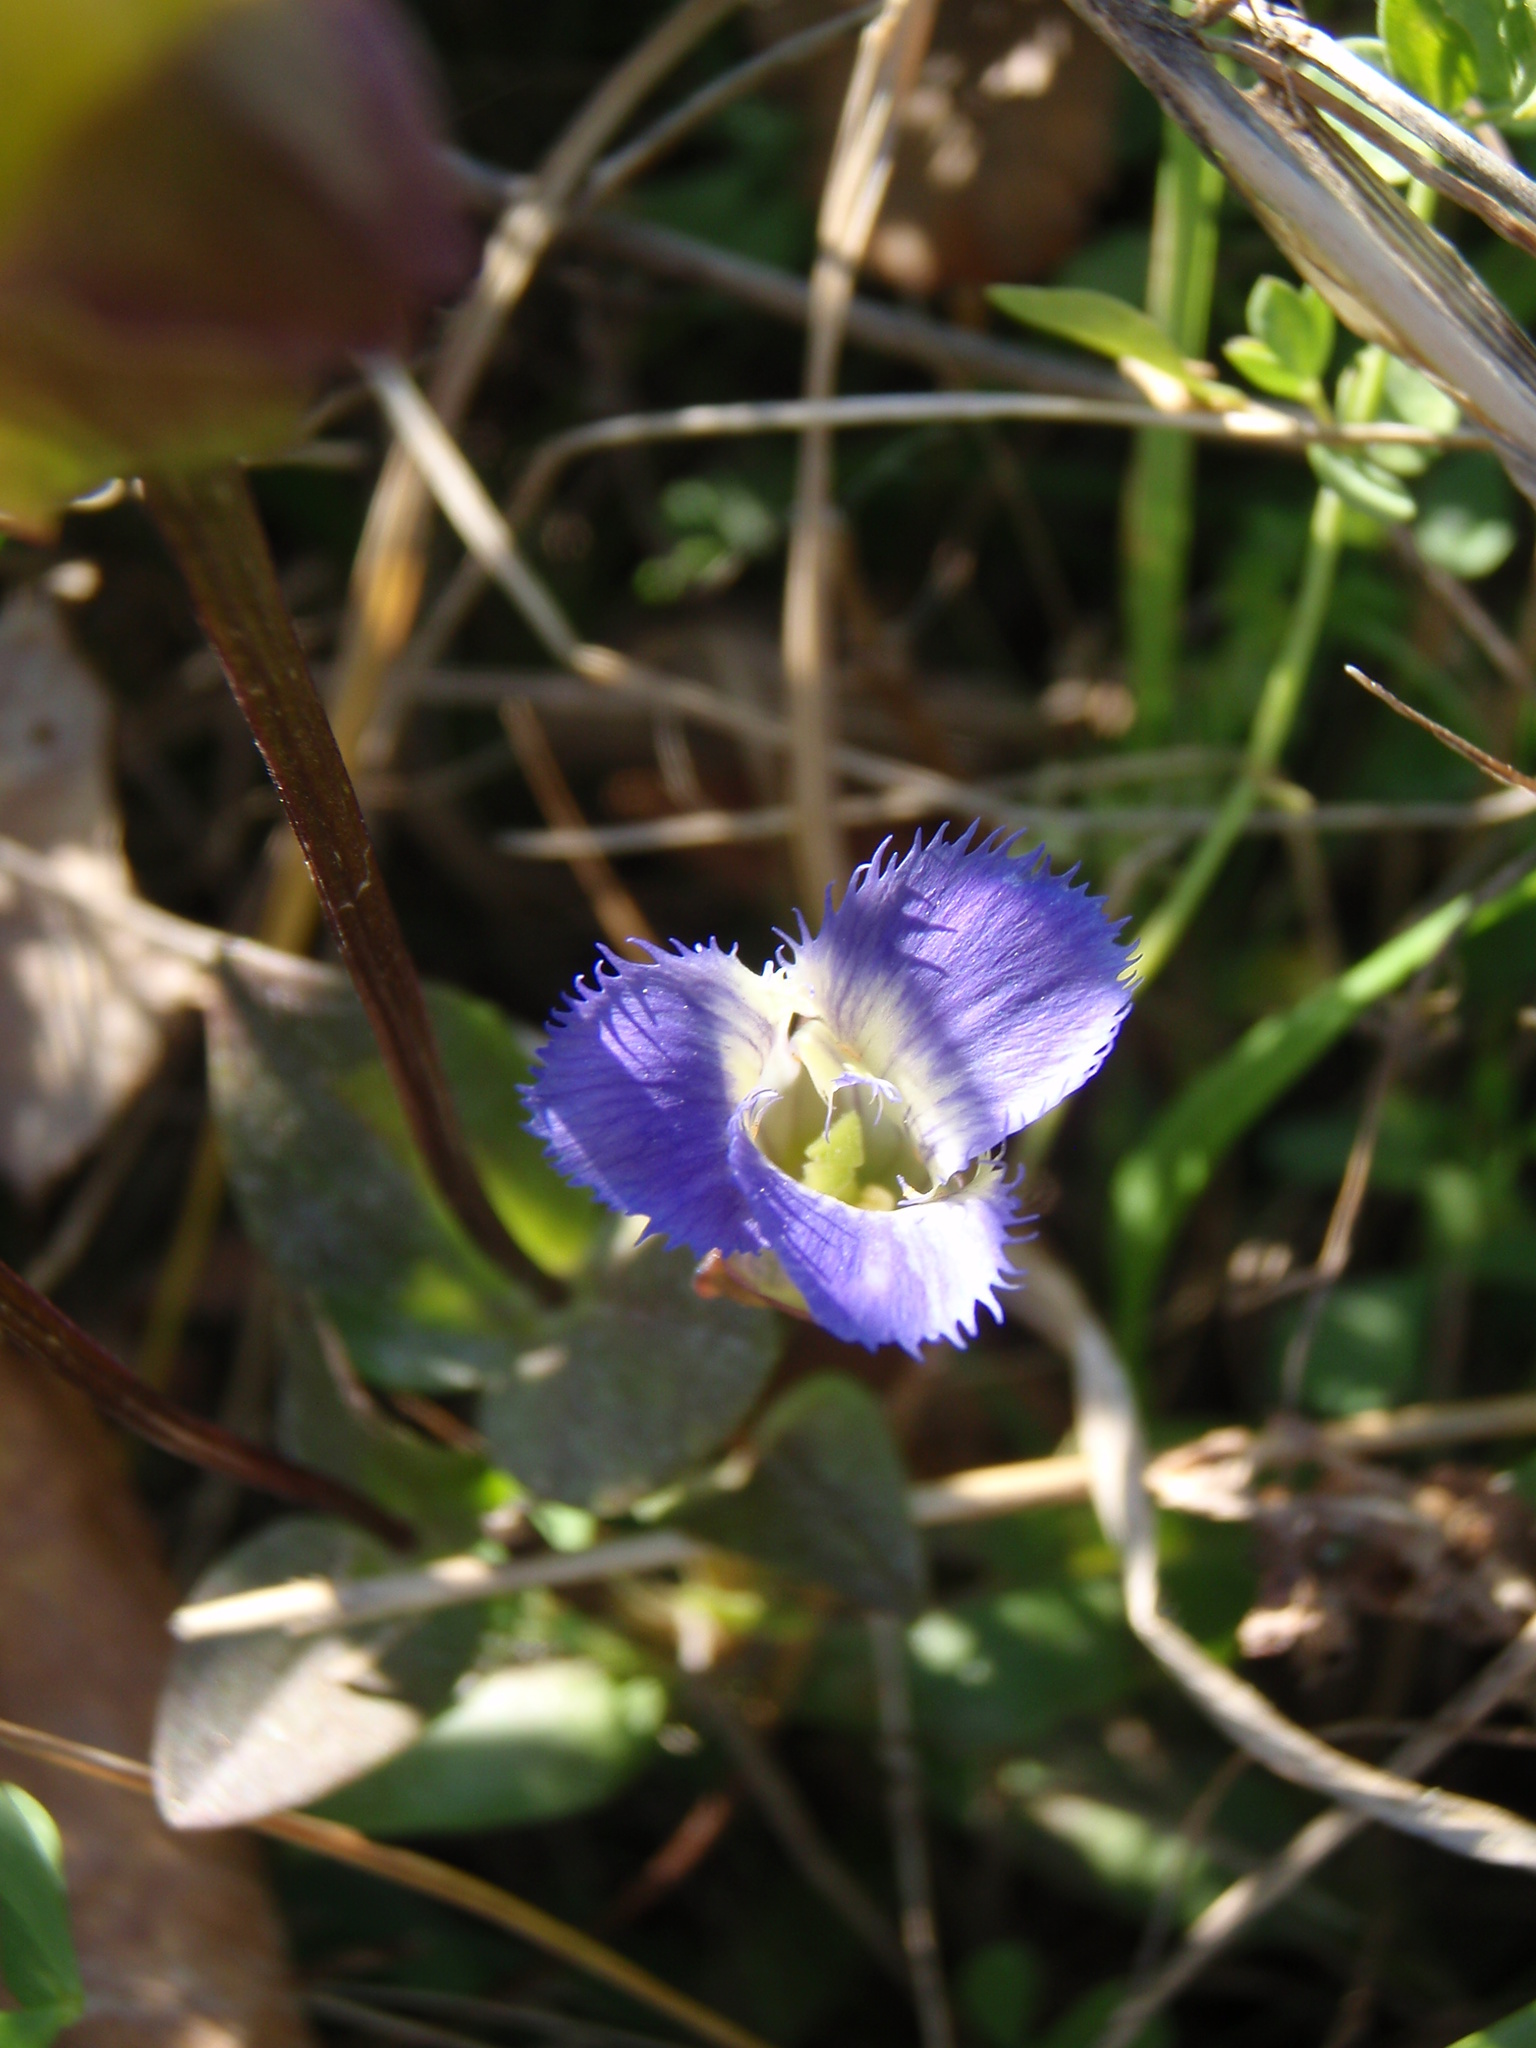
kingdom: Plantae
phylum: Tracheophyta
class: Magnoliopsida
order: Gentianales
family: Gentianaceae
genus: Gentianopsis
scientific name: Gentianopsis crinita
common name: Fringed-gentian
